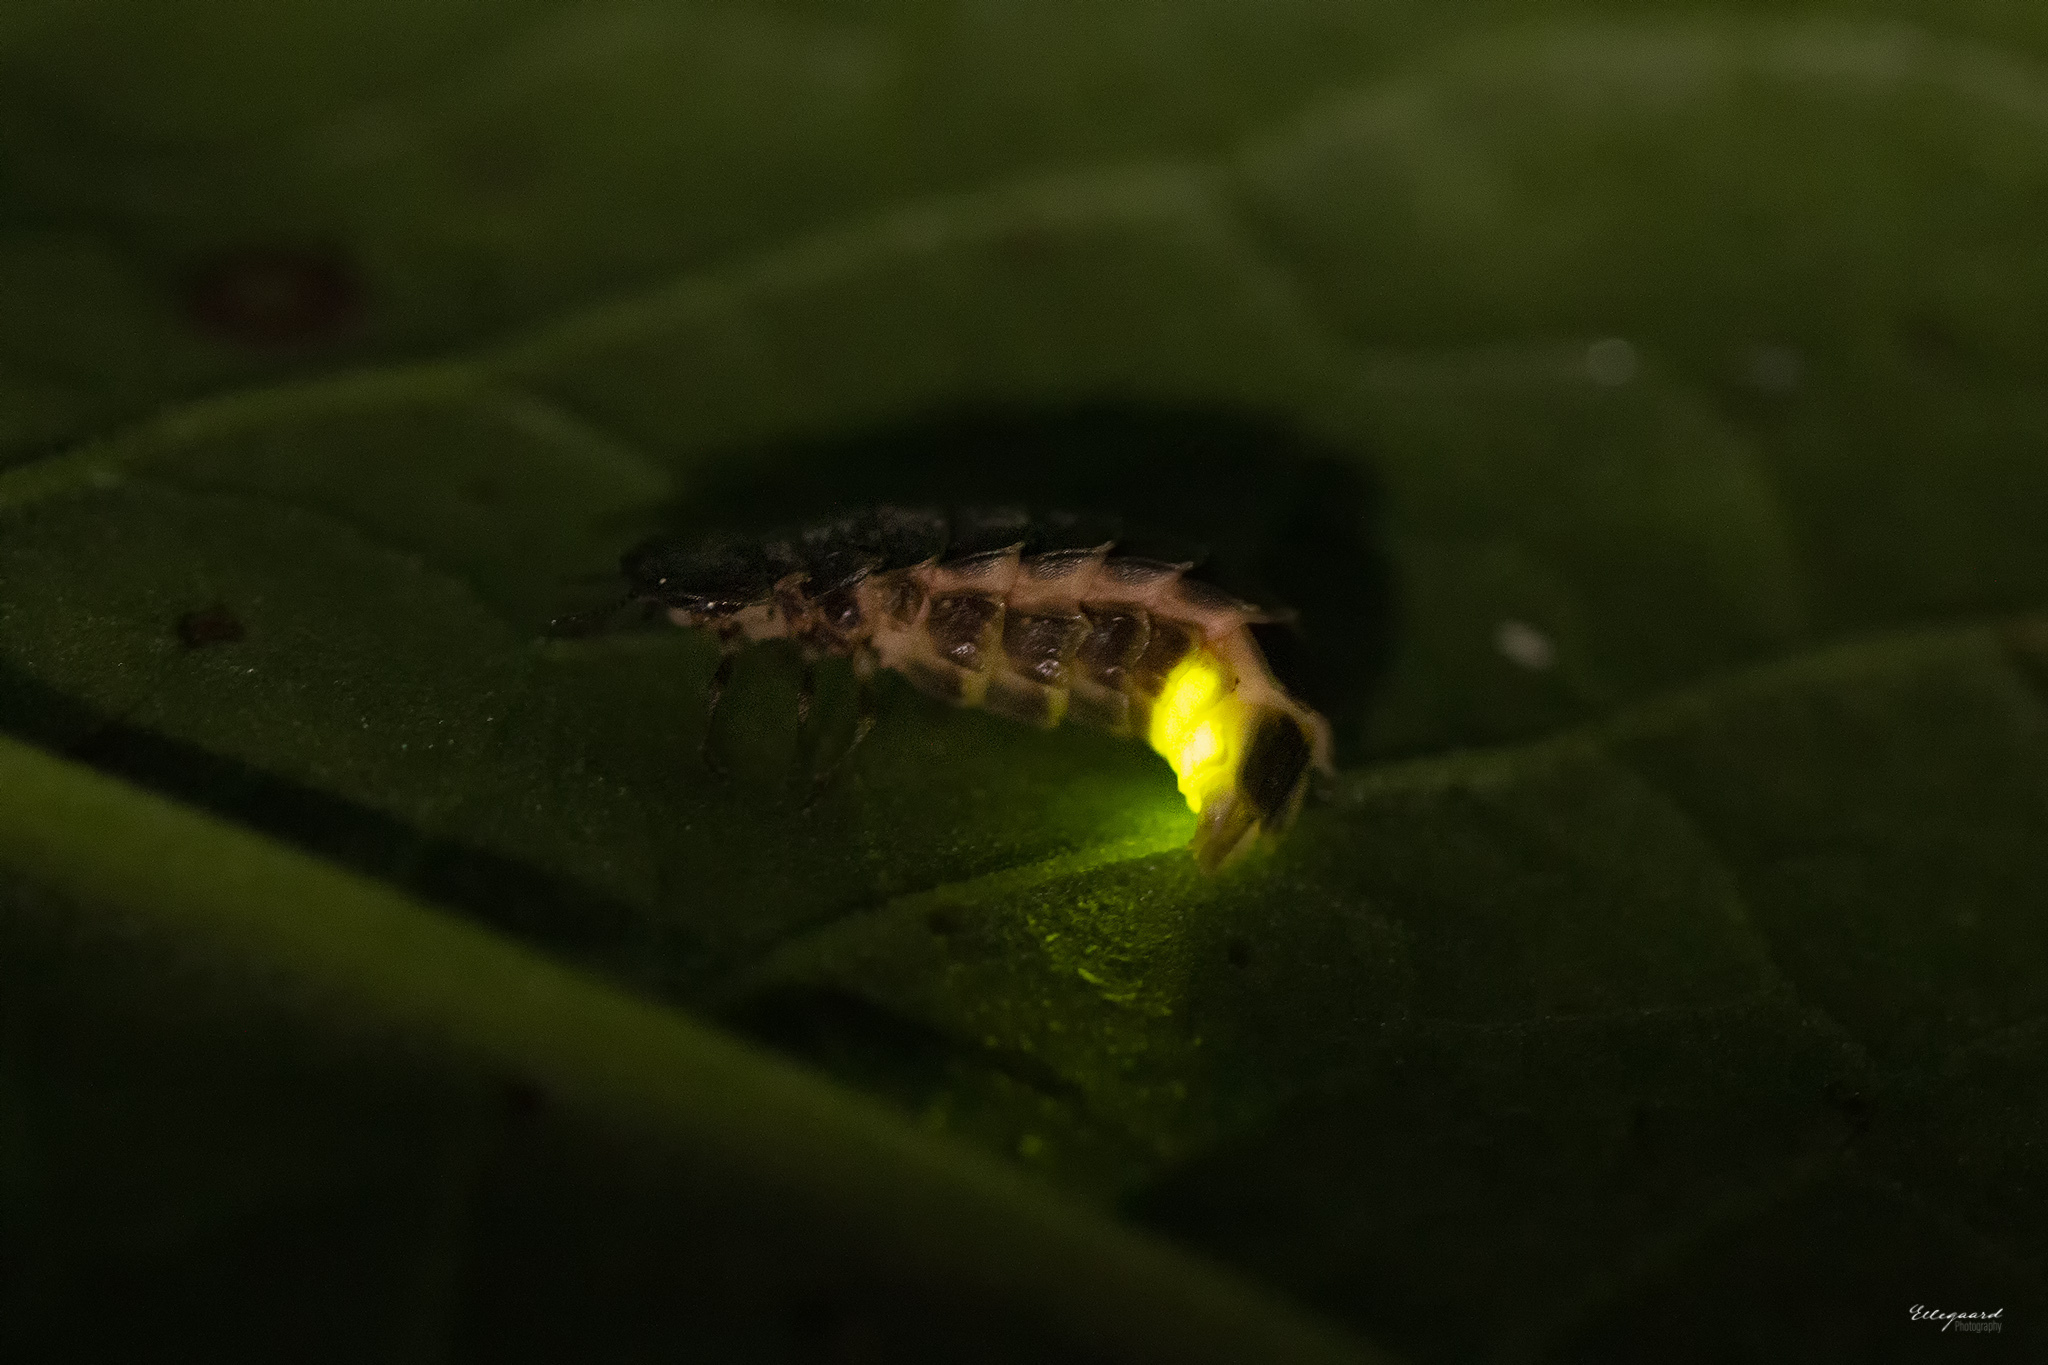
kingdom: Animalia
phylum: Arthropoda
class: Insecta
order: Coleoptera
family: Lampyridae
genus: Lampyris
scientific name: Lampyris noctiluca
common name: Glow-worm
